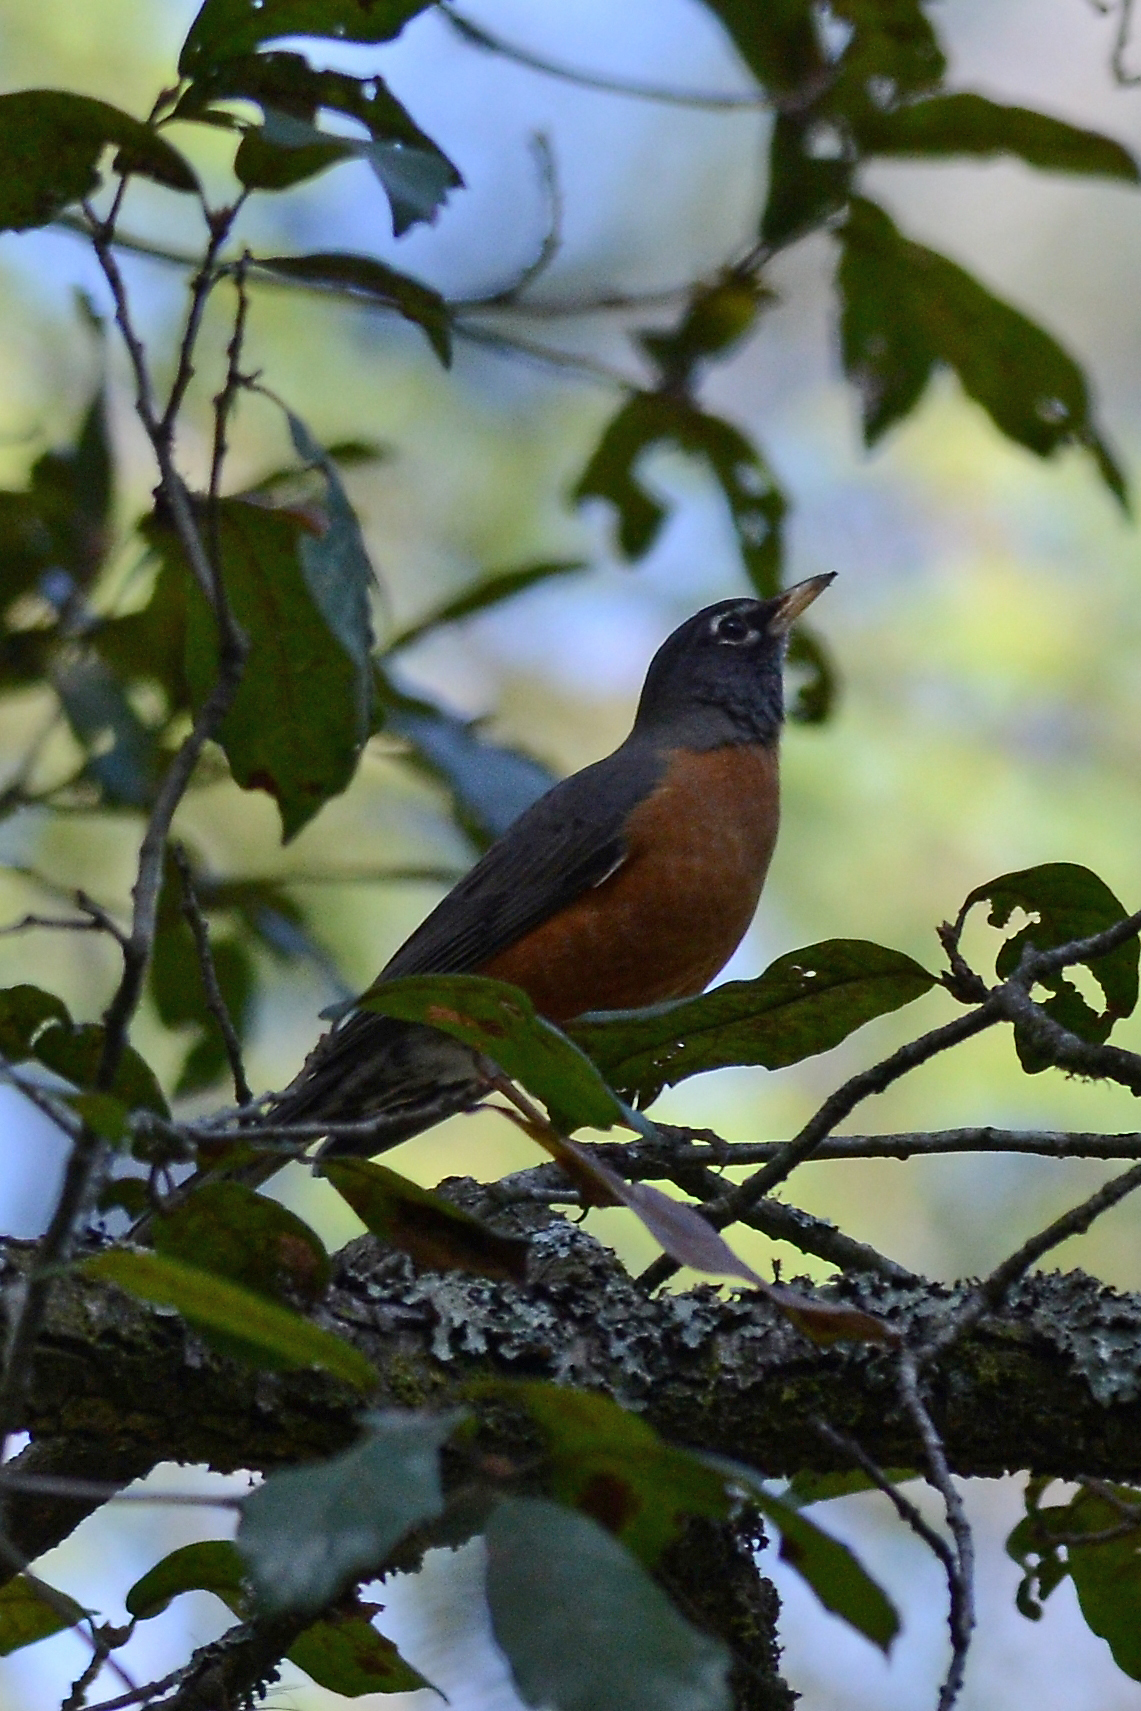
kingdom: Animalia
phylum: Chordata
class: Aves
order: Passeriformes
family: Turdidae
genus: Turdus
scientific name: Turdus migratorius
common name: American robin
